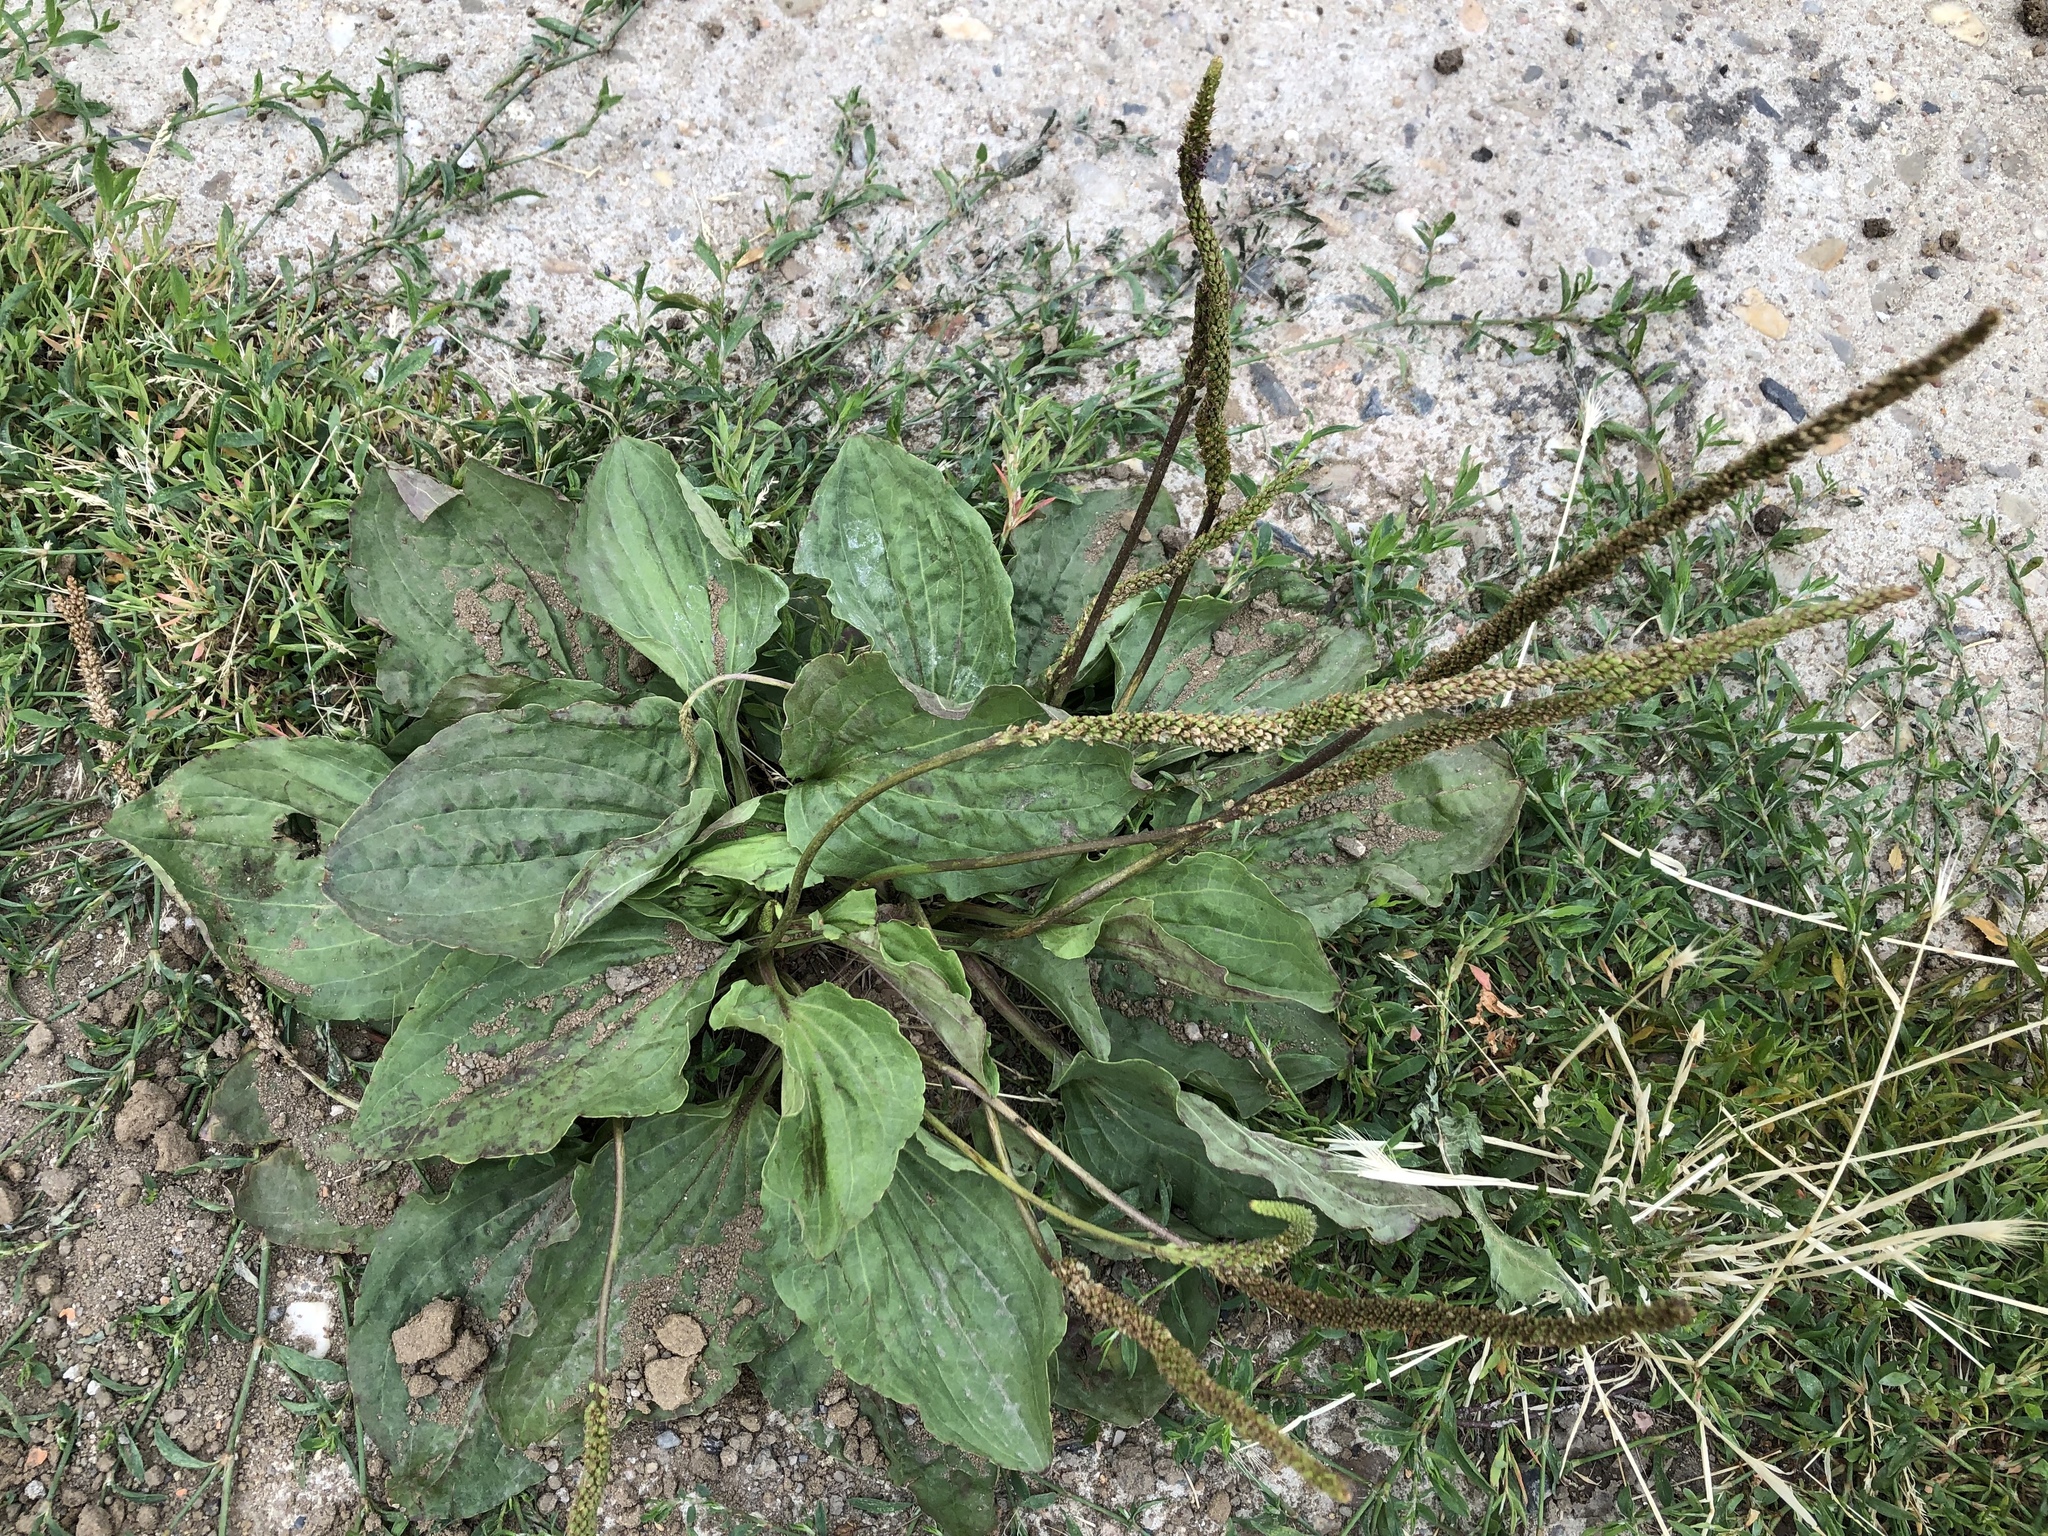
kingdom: Plantae
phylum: Tracheophyta
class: Magnoliopsida
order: Lamiales
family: Plantaginaceae
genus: Plantago
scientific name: Plantago major
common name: Common plantain
